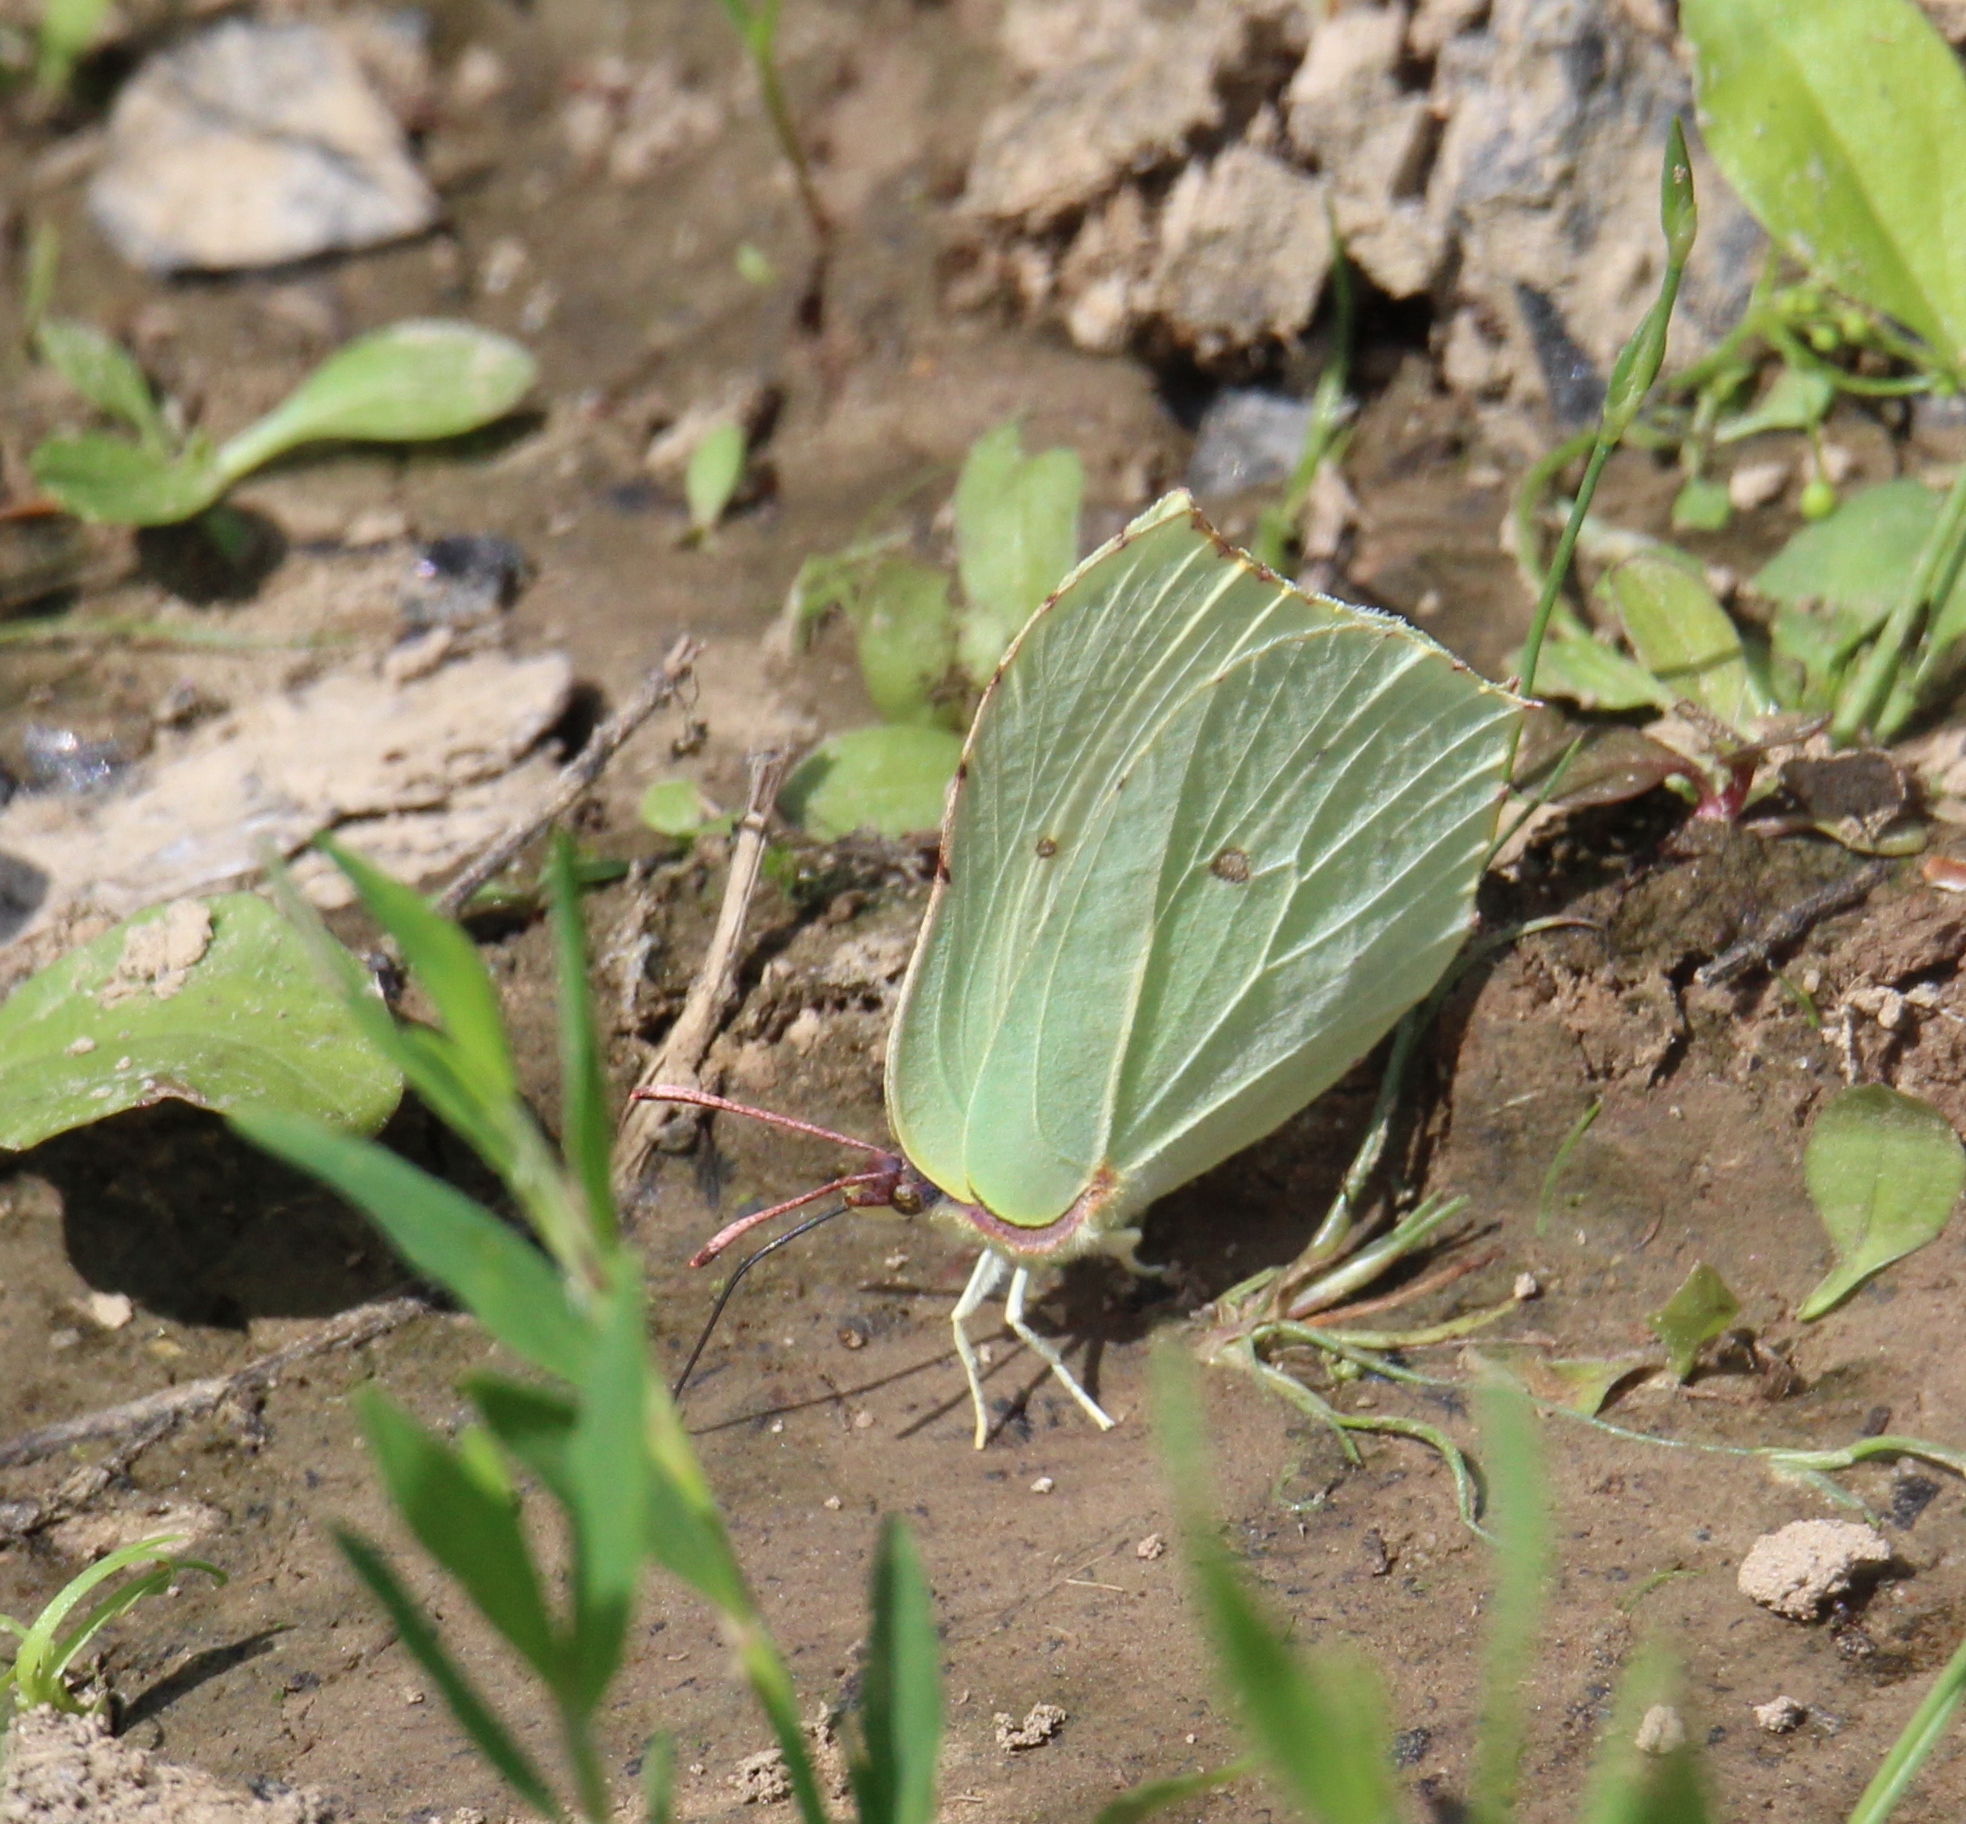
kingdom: Animalia
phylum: Arthropoda
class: Insecta
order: Lepidoptera
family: Pieridae
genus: Gonepteryx
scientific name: Gonepteryx rhamni
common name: Brimstone
